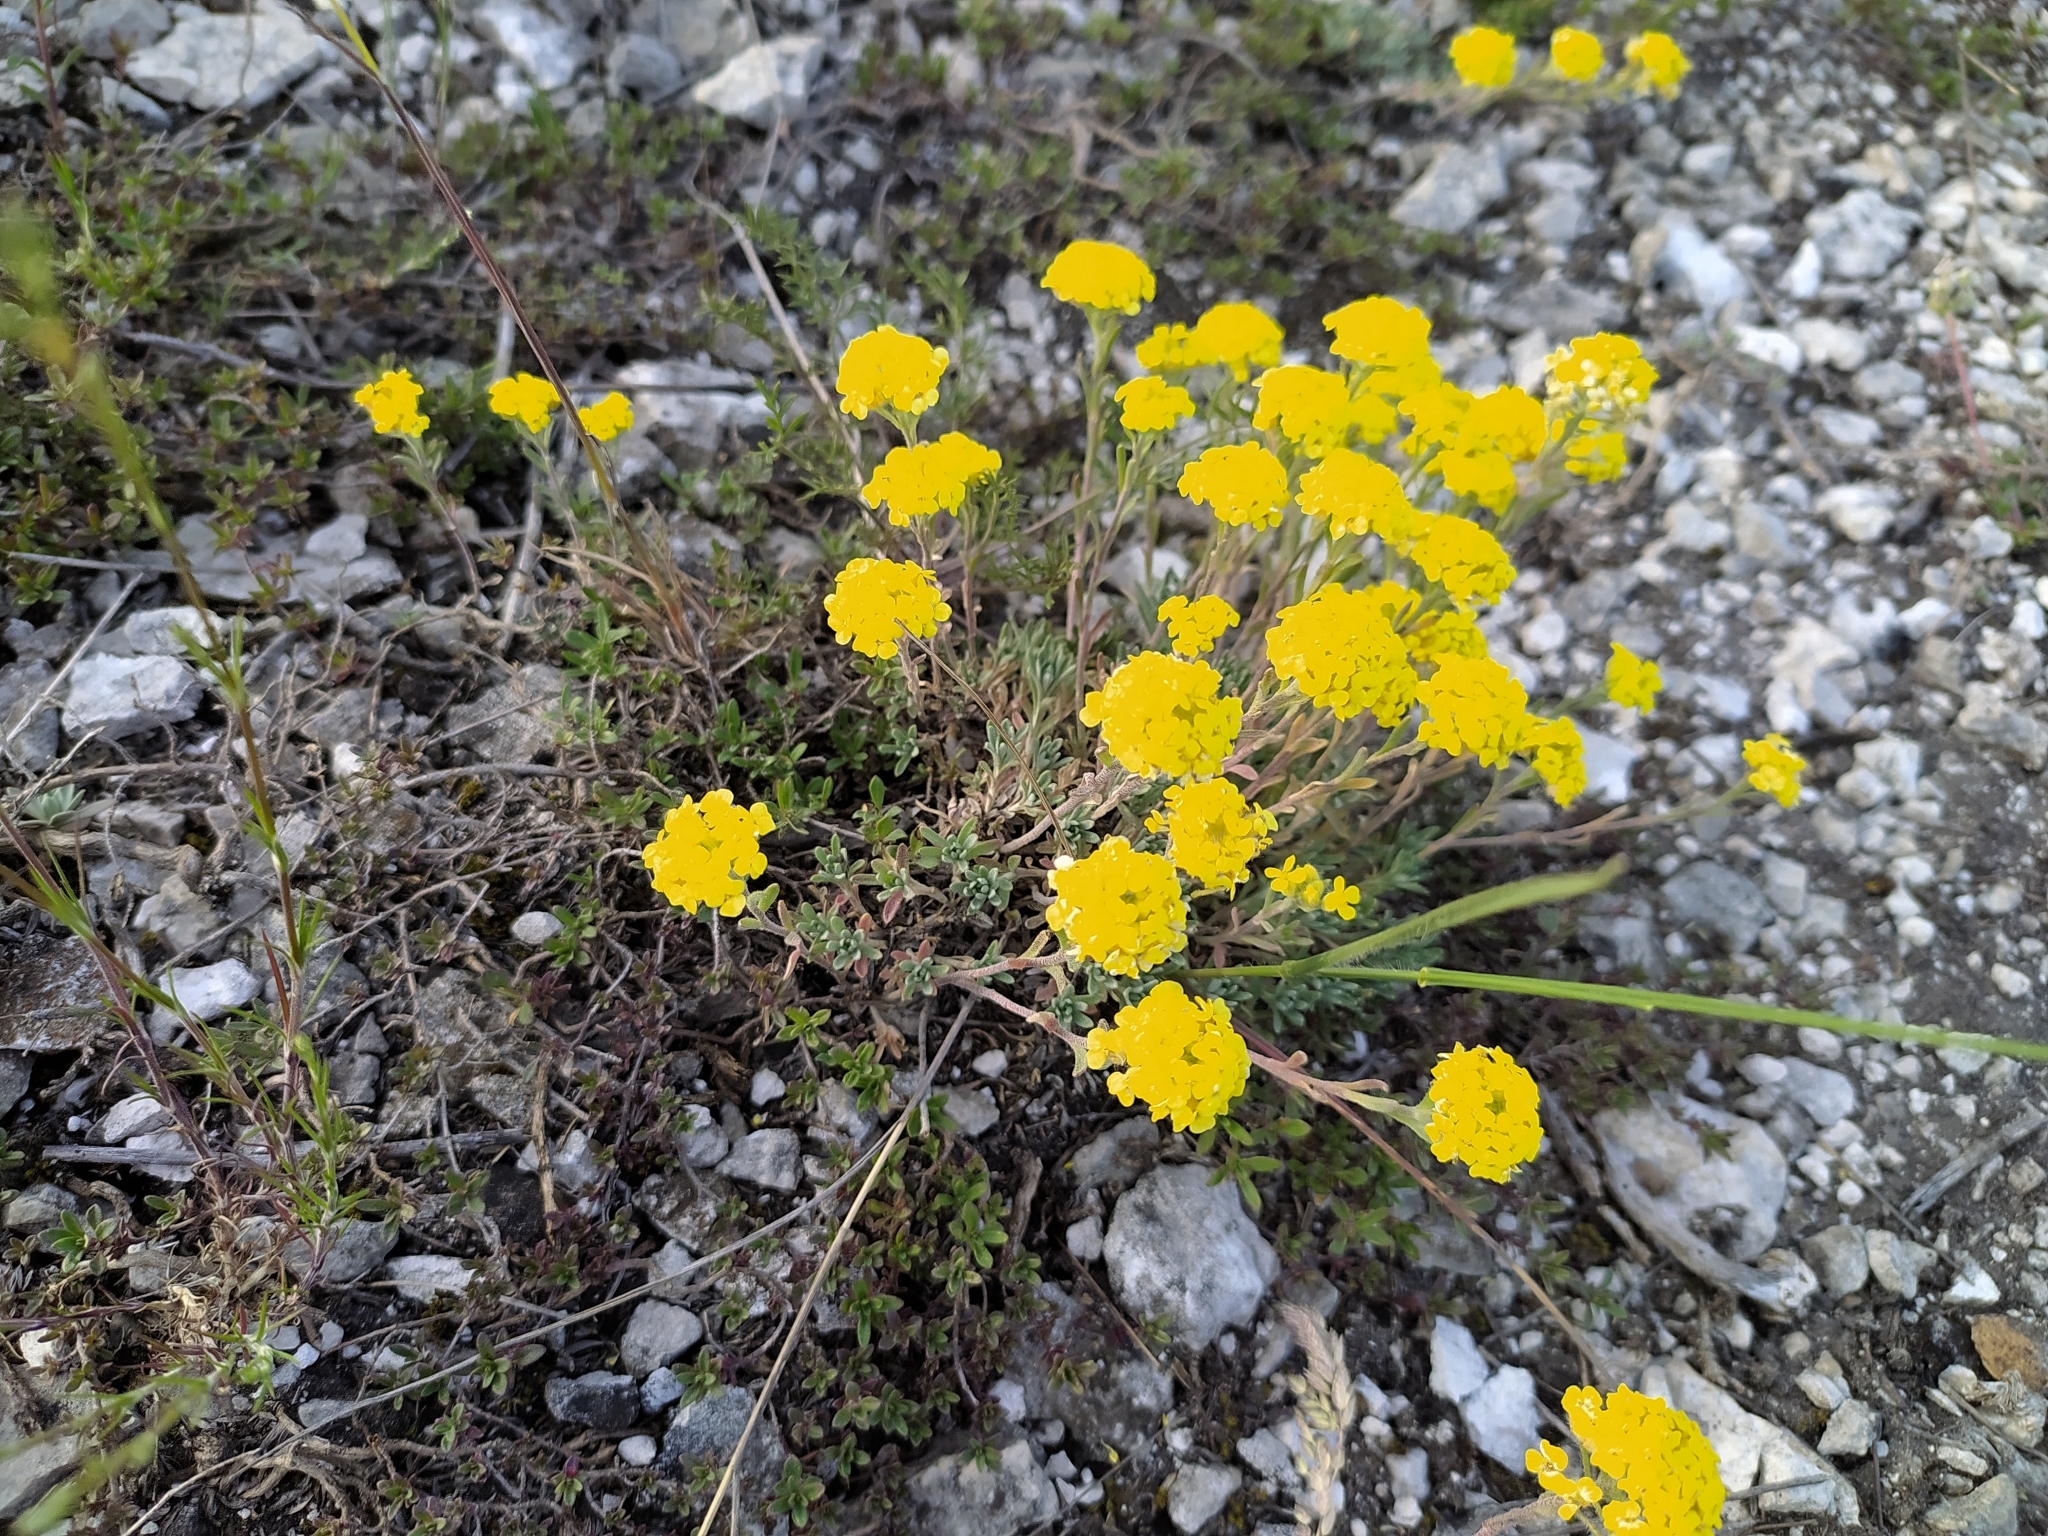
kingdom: Plantae
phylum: Tracheophyta
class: Magnoliopsida
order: Brassicales
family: Brassicaceae
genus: Odontarrhena
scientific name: Odontarrhena tortuosa
